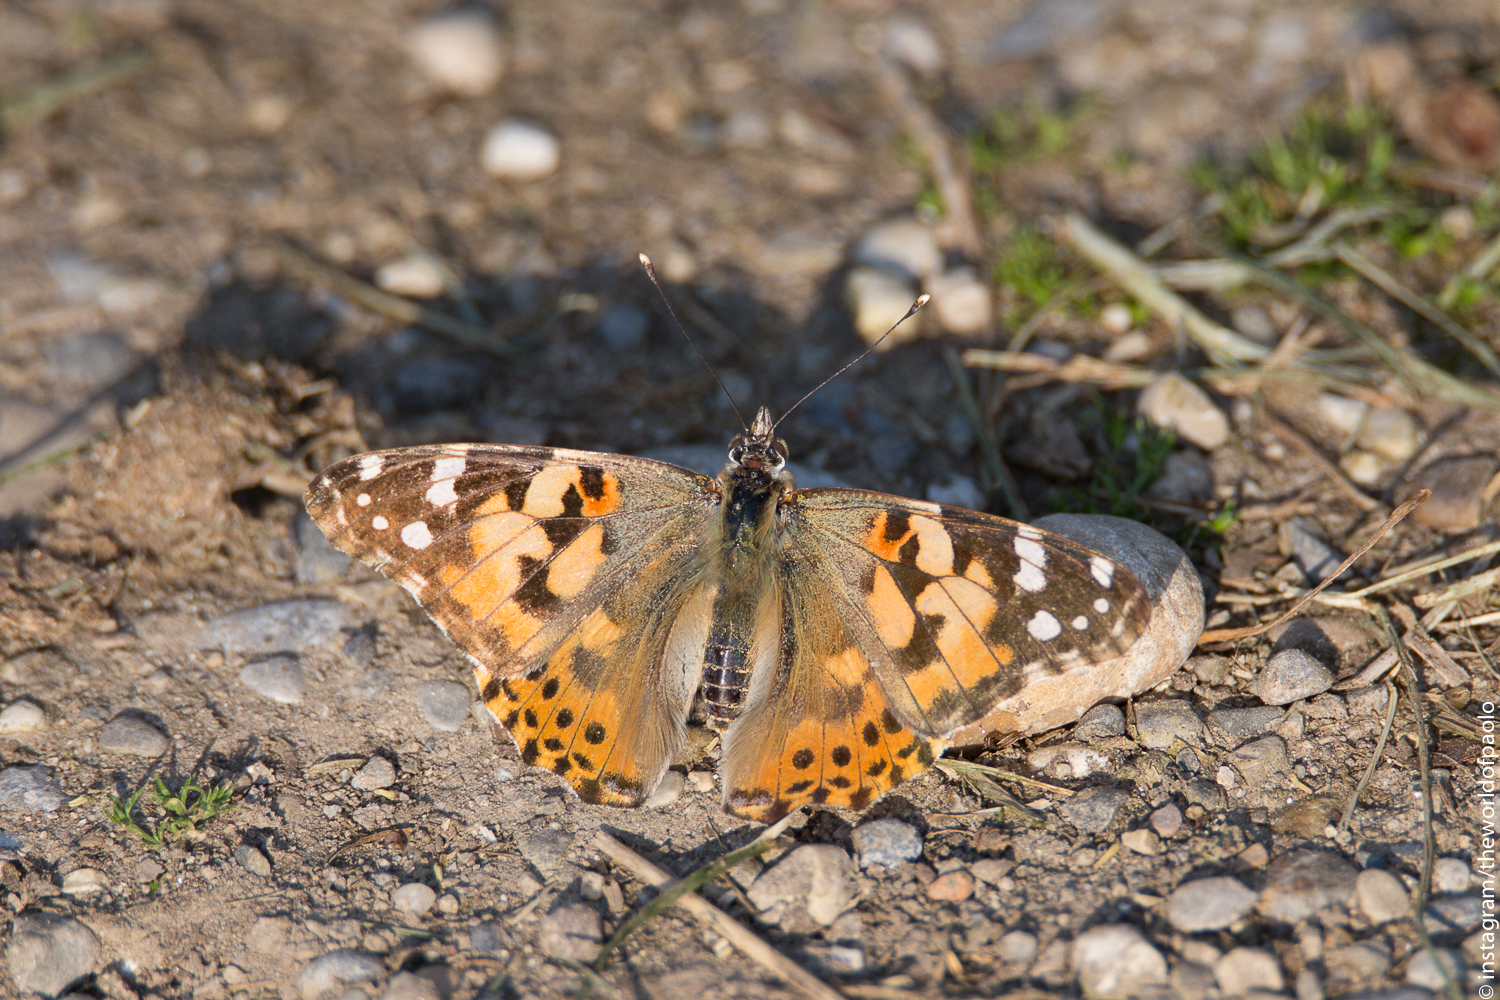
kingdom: Animalia
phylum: Arthropoda
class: Insecta
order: Lepidoptera
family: Nymphalidae
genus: Vanessa
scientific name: Vanessa cardui
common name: Painted lady
